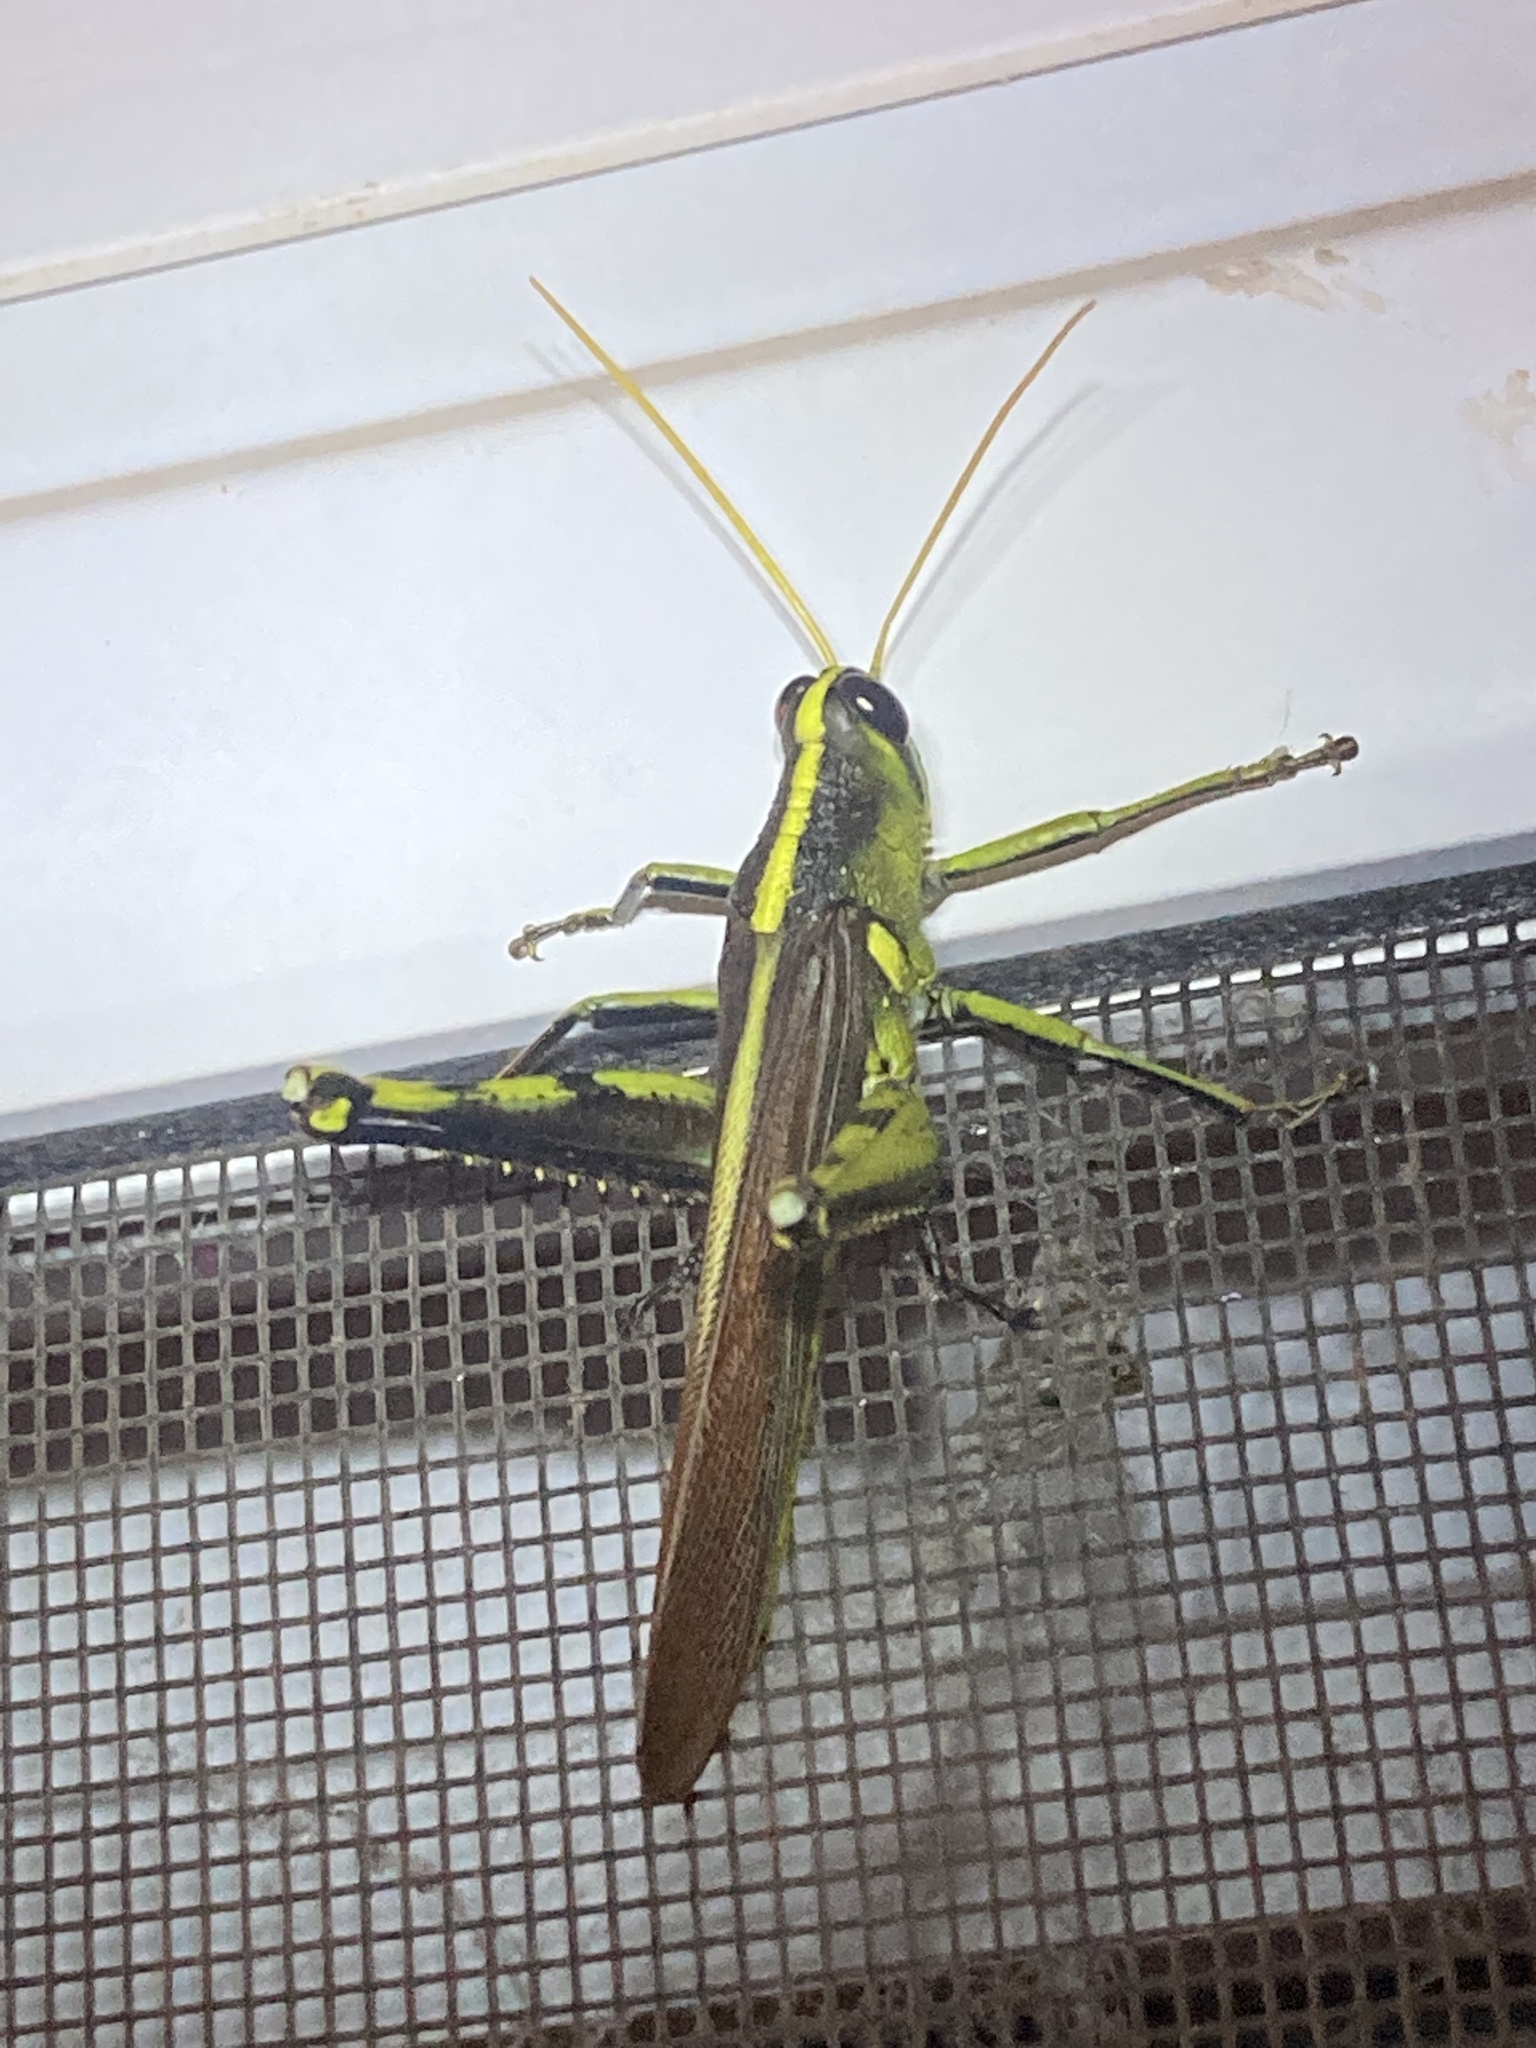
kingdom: Animalia
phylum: Arthropoda
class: Insecta
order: Orthoptera
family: Acrididae
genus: Schistocerca
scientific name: Schistocerca obscura
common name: Obscure bird grasshopper
